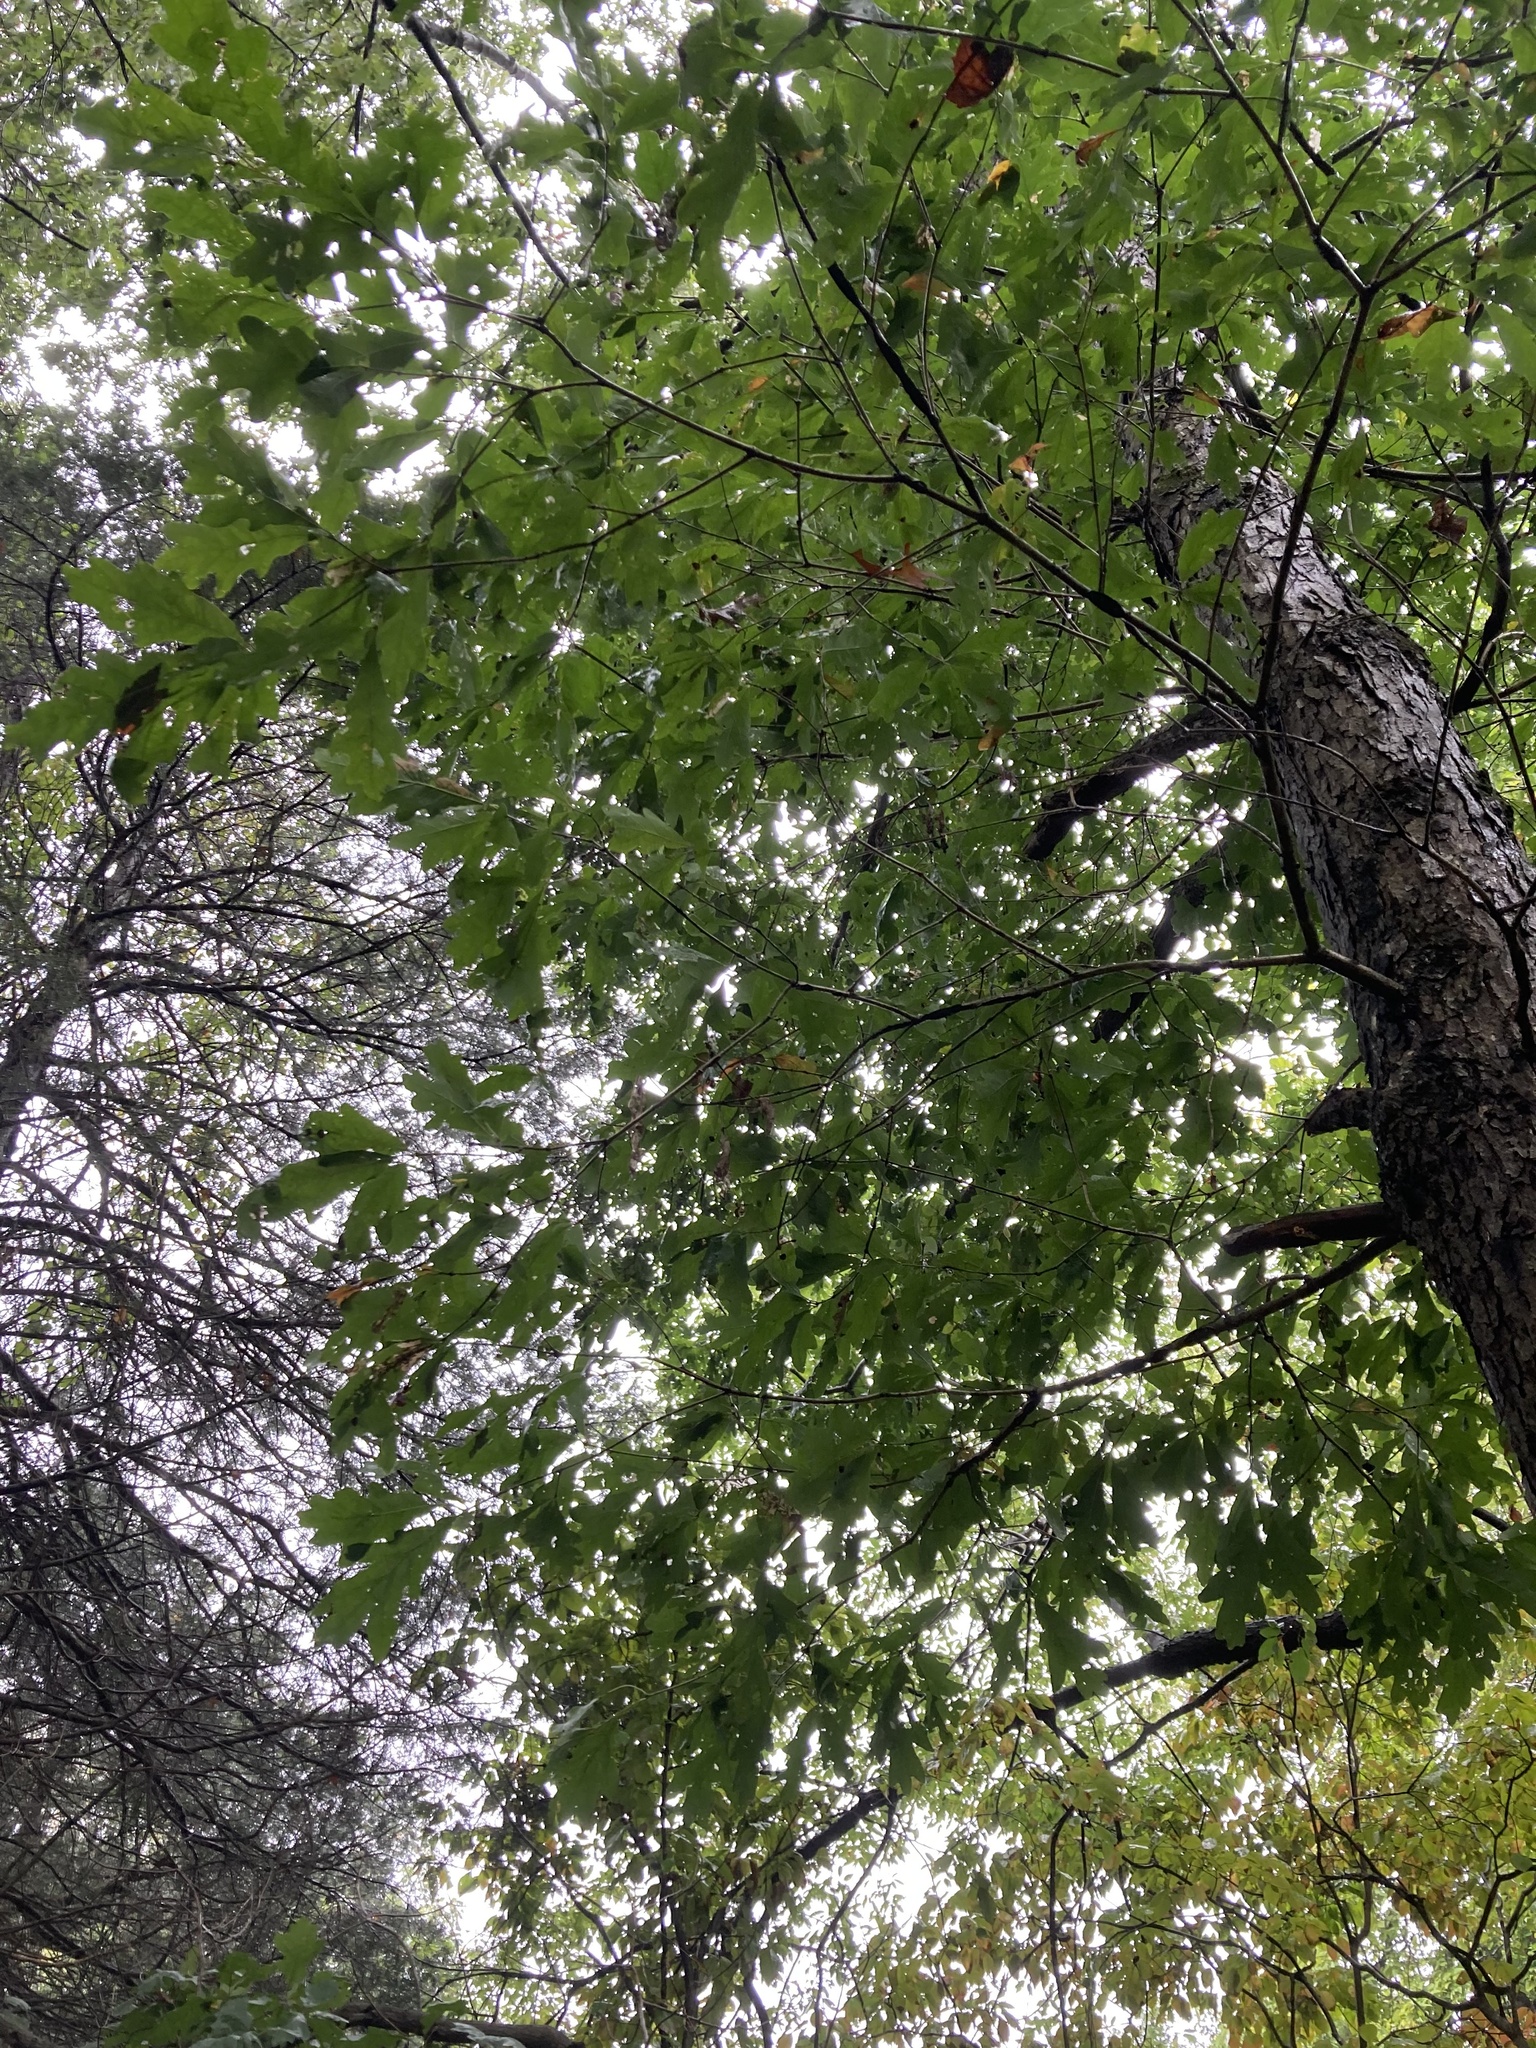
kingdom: Plantae
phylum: Tracheophyta
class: Magnoliopsida
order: Fagales
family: Fagaceae
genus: Quercus
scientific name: Quercus alba
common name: White oak
